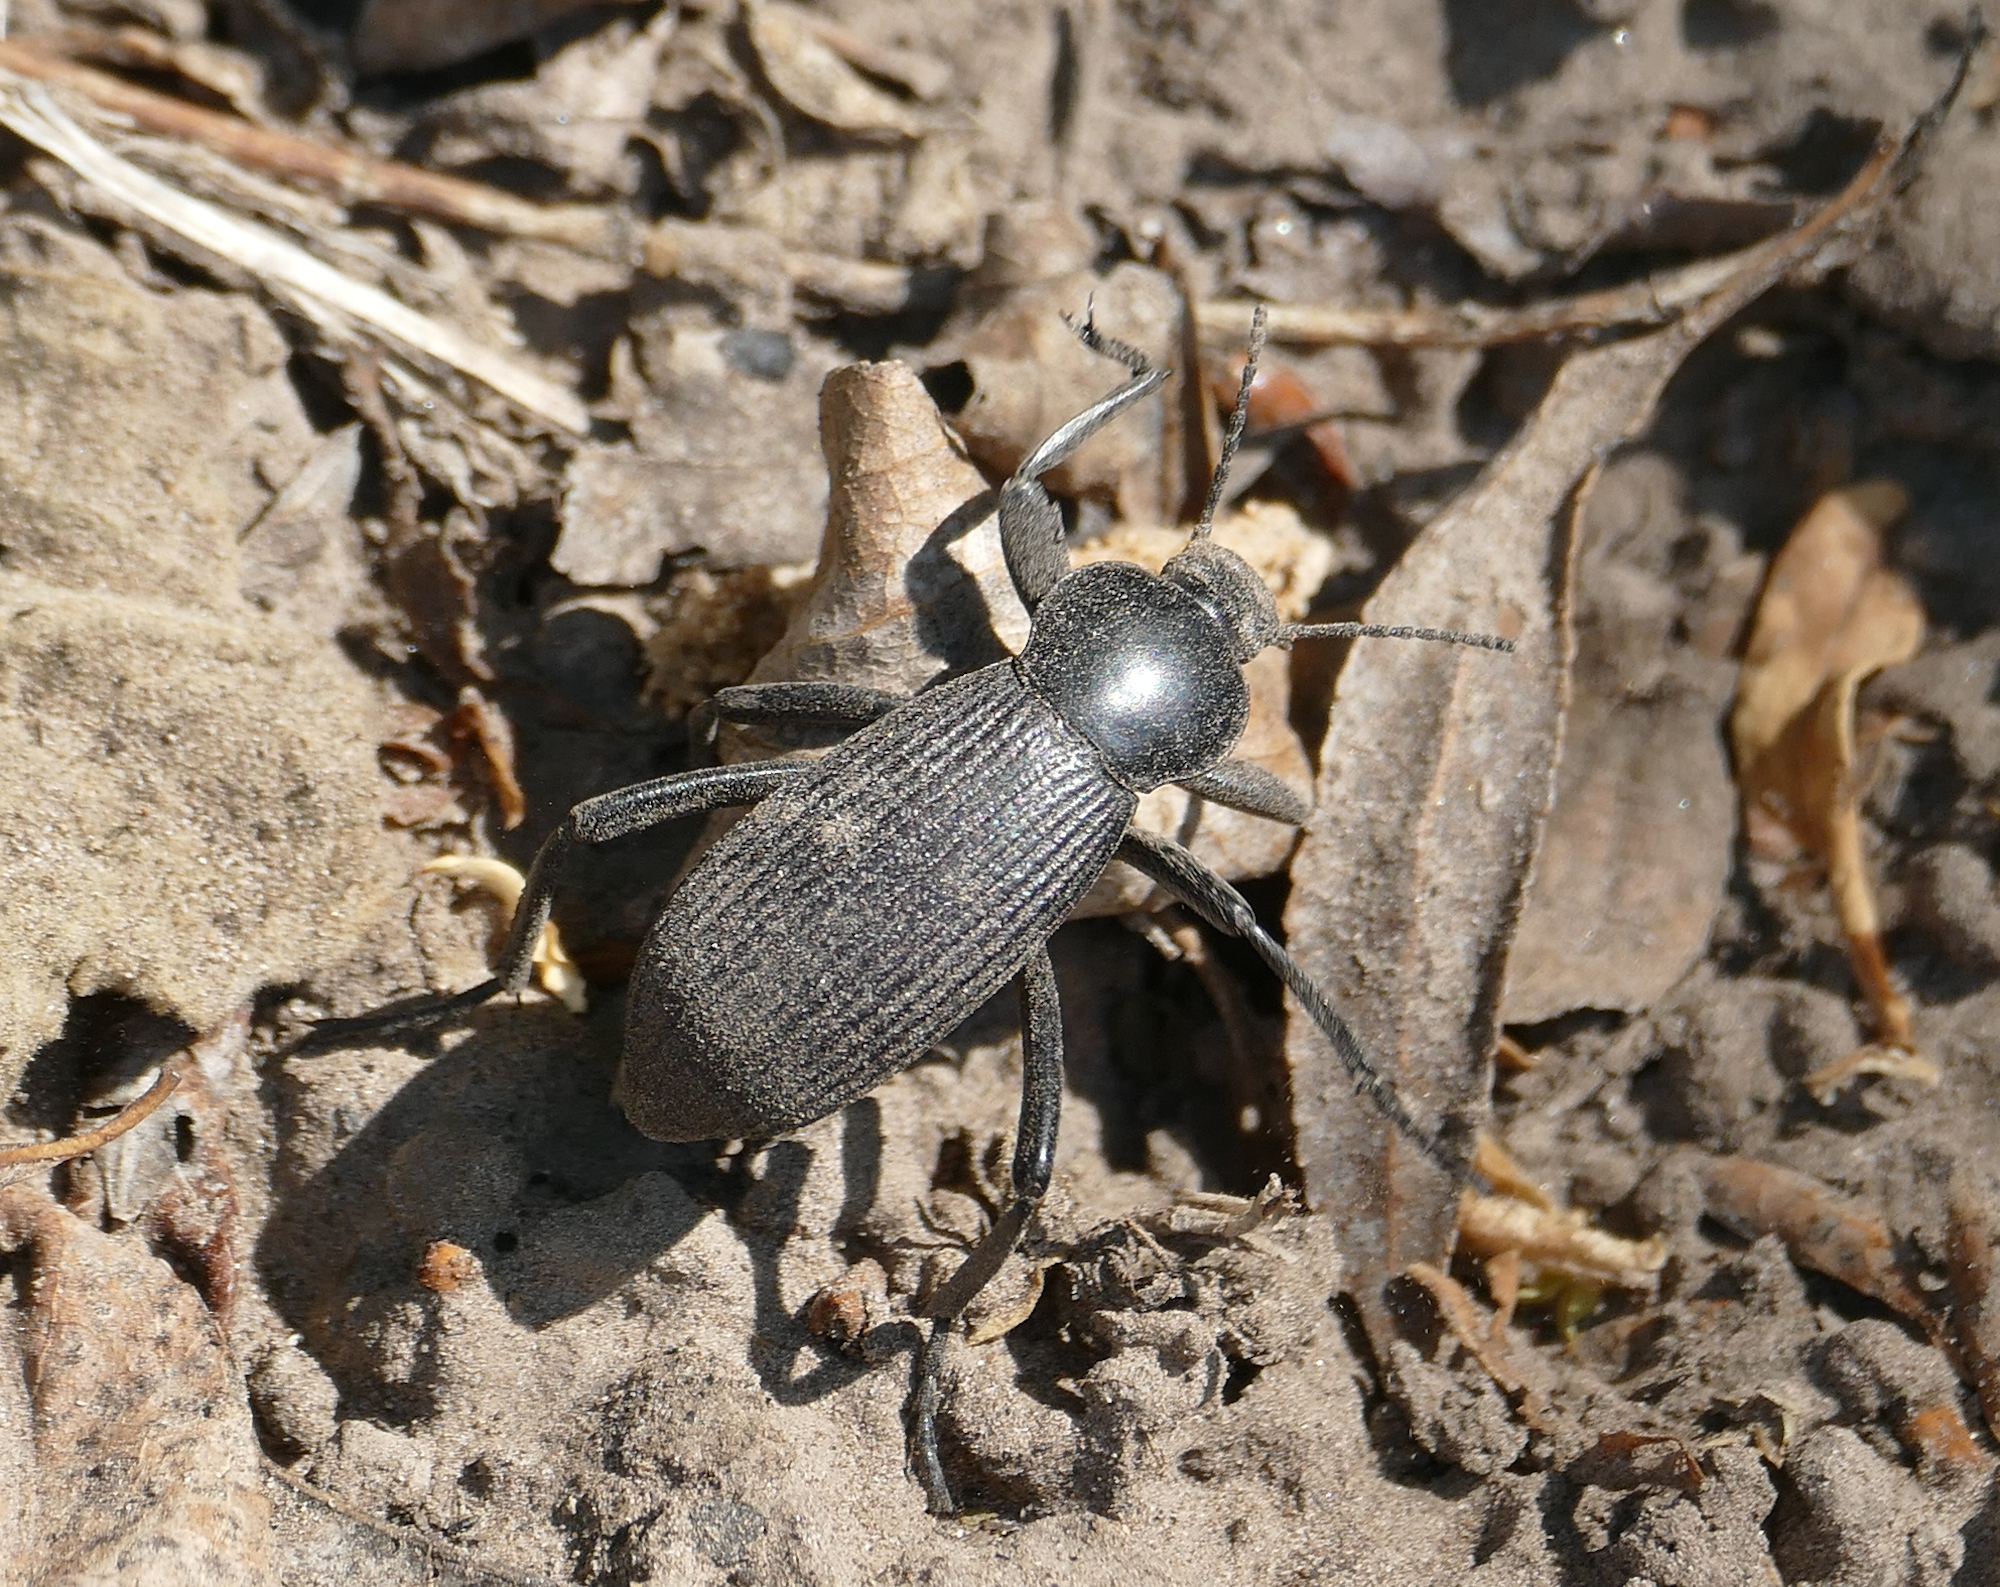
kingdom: Animalia
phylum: Arthropoda
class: Insecta
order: Coleoptera
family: Tenebrionidae
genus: Eleodes
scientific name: Eleodes obscura
